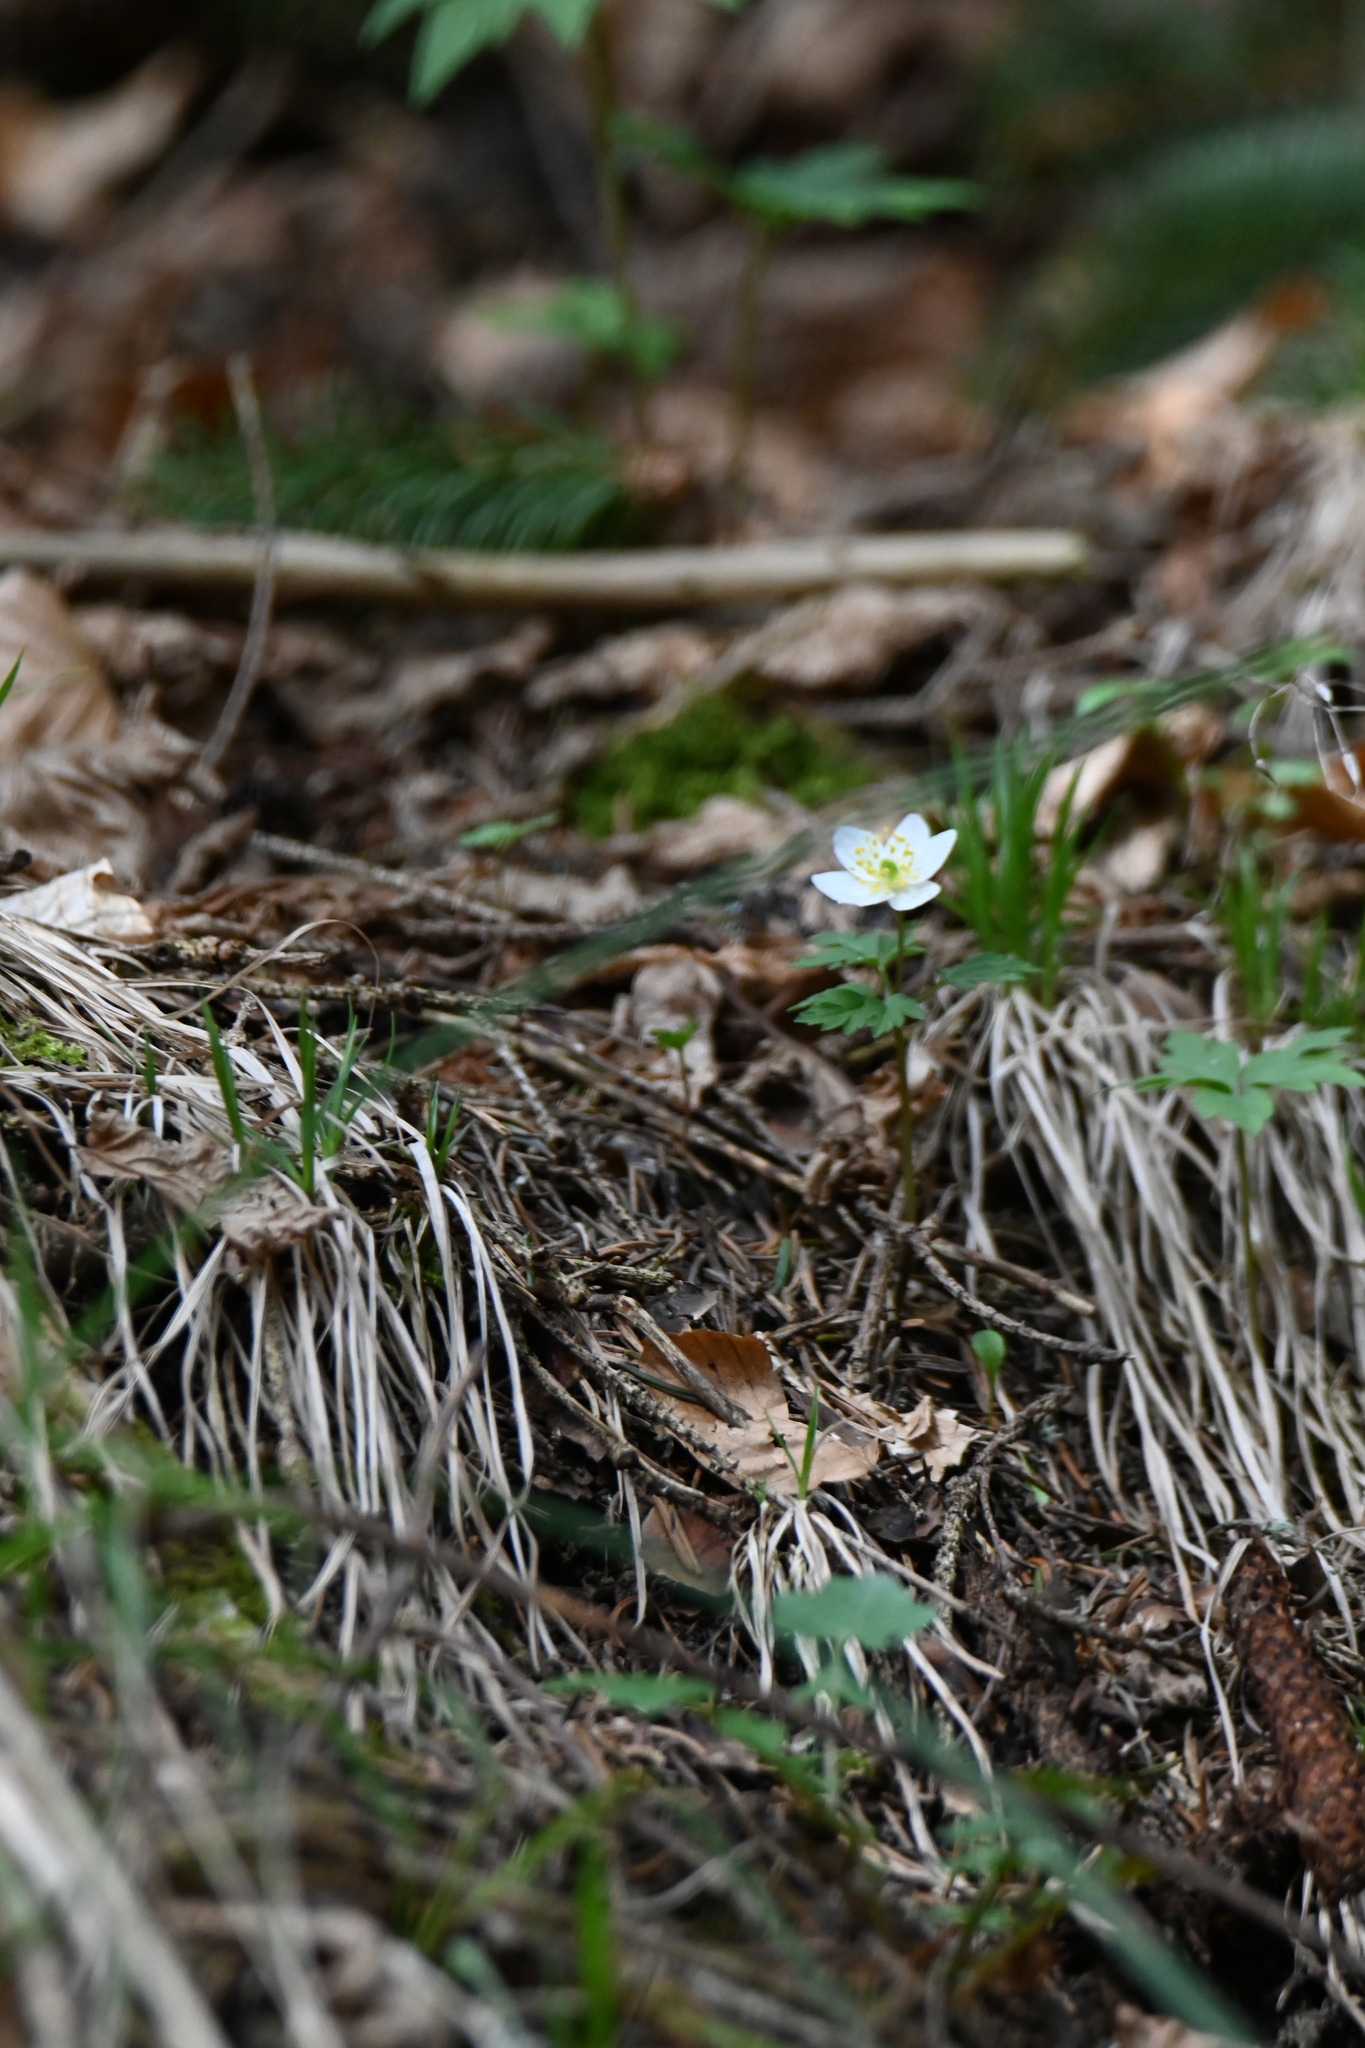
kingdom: Plantae
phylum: Tracheophyta
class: Magnoliopsida
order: Ranunculales
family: Ranunculaceae
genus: Anemone
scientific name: Anemone nemorosa
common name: Wood anemone
